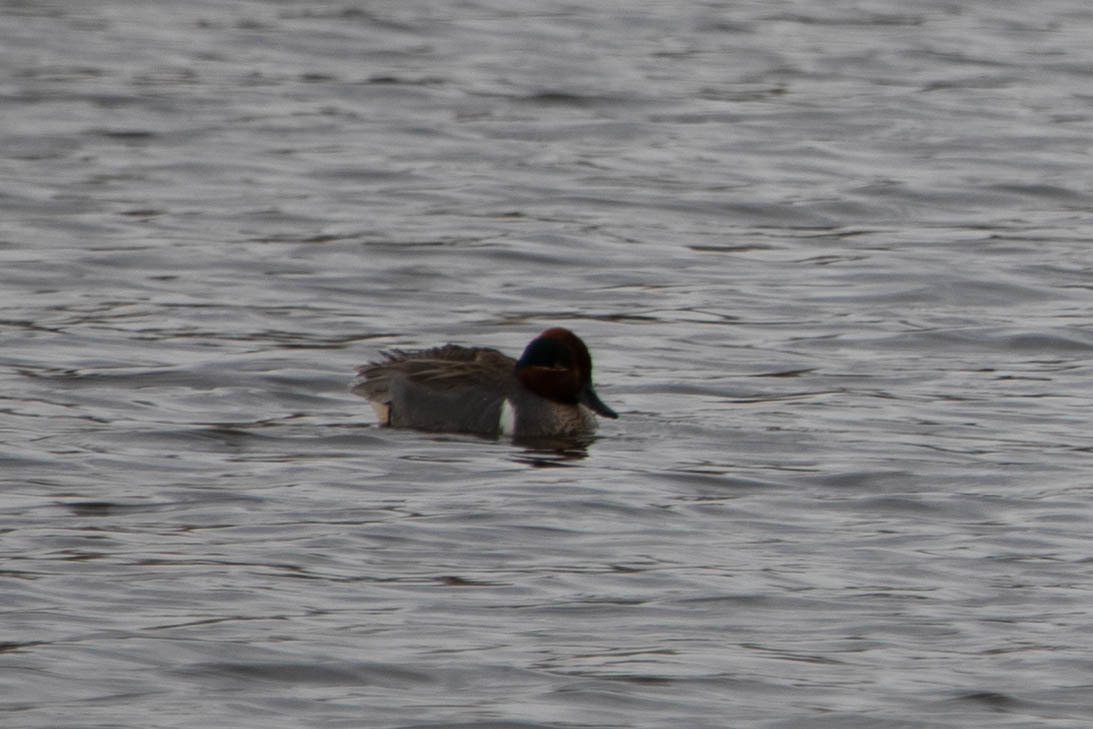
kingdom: Animalia
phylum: Chordata
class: Aves
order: Anseriformes
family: Anatidae
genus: Anas
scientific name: Anas carolinensis
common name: Green-winged teal
